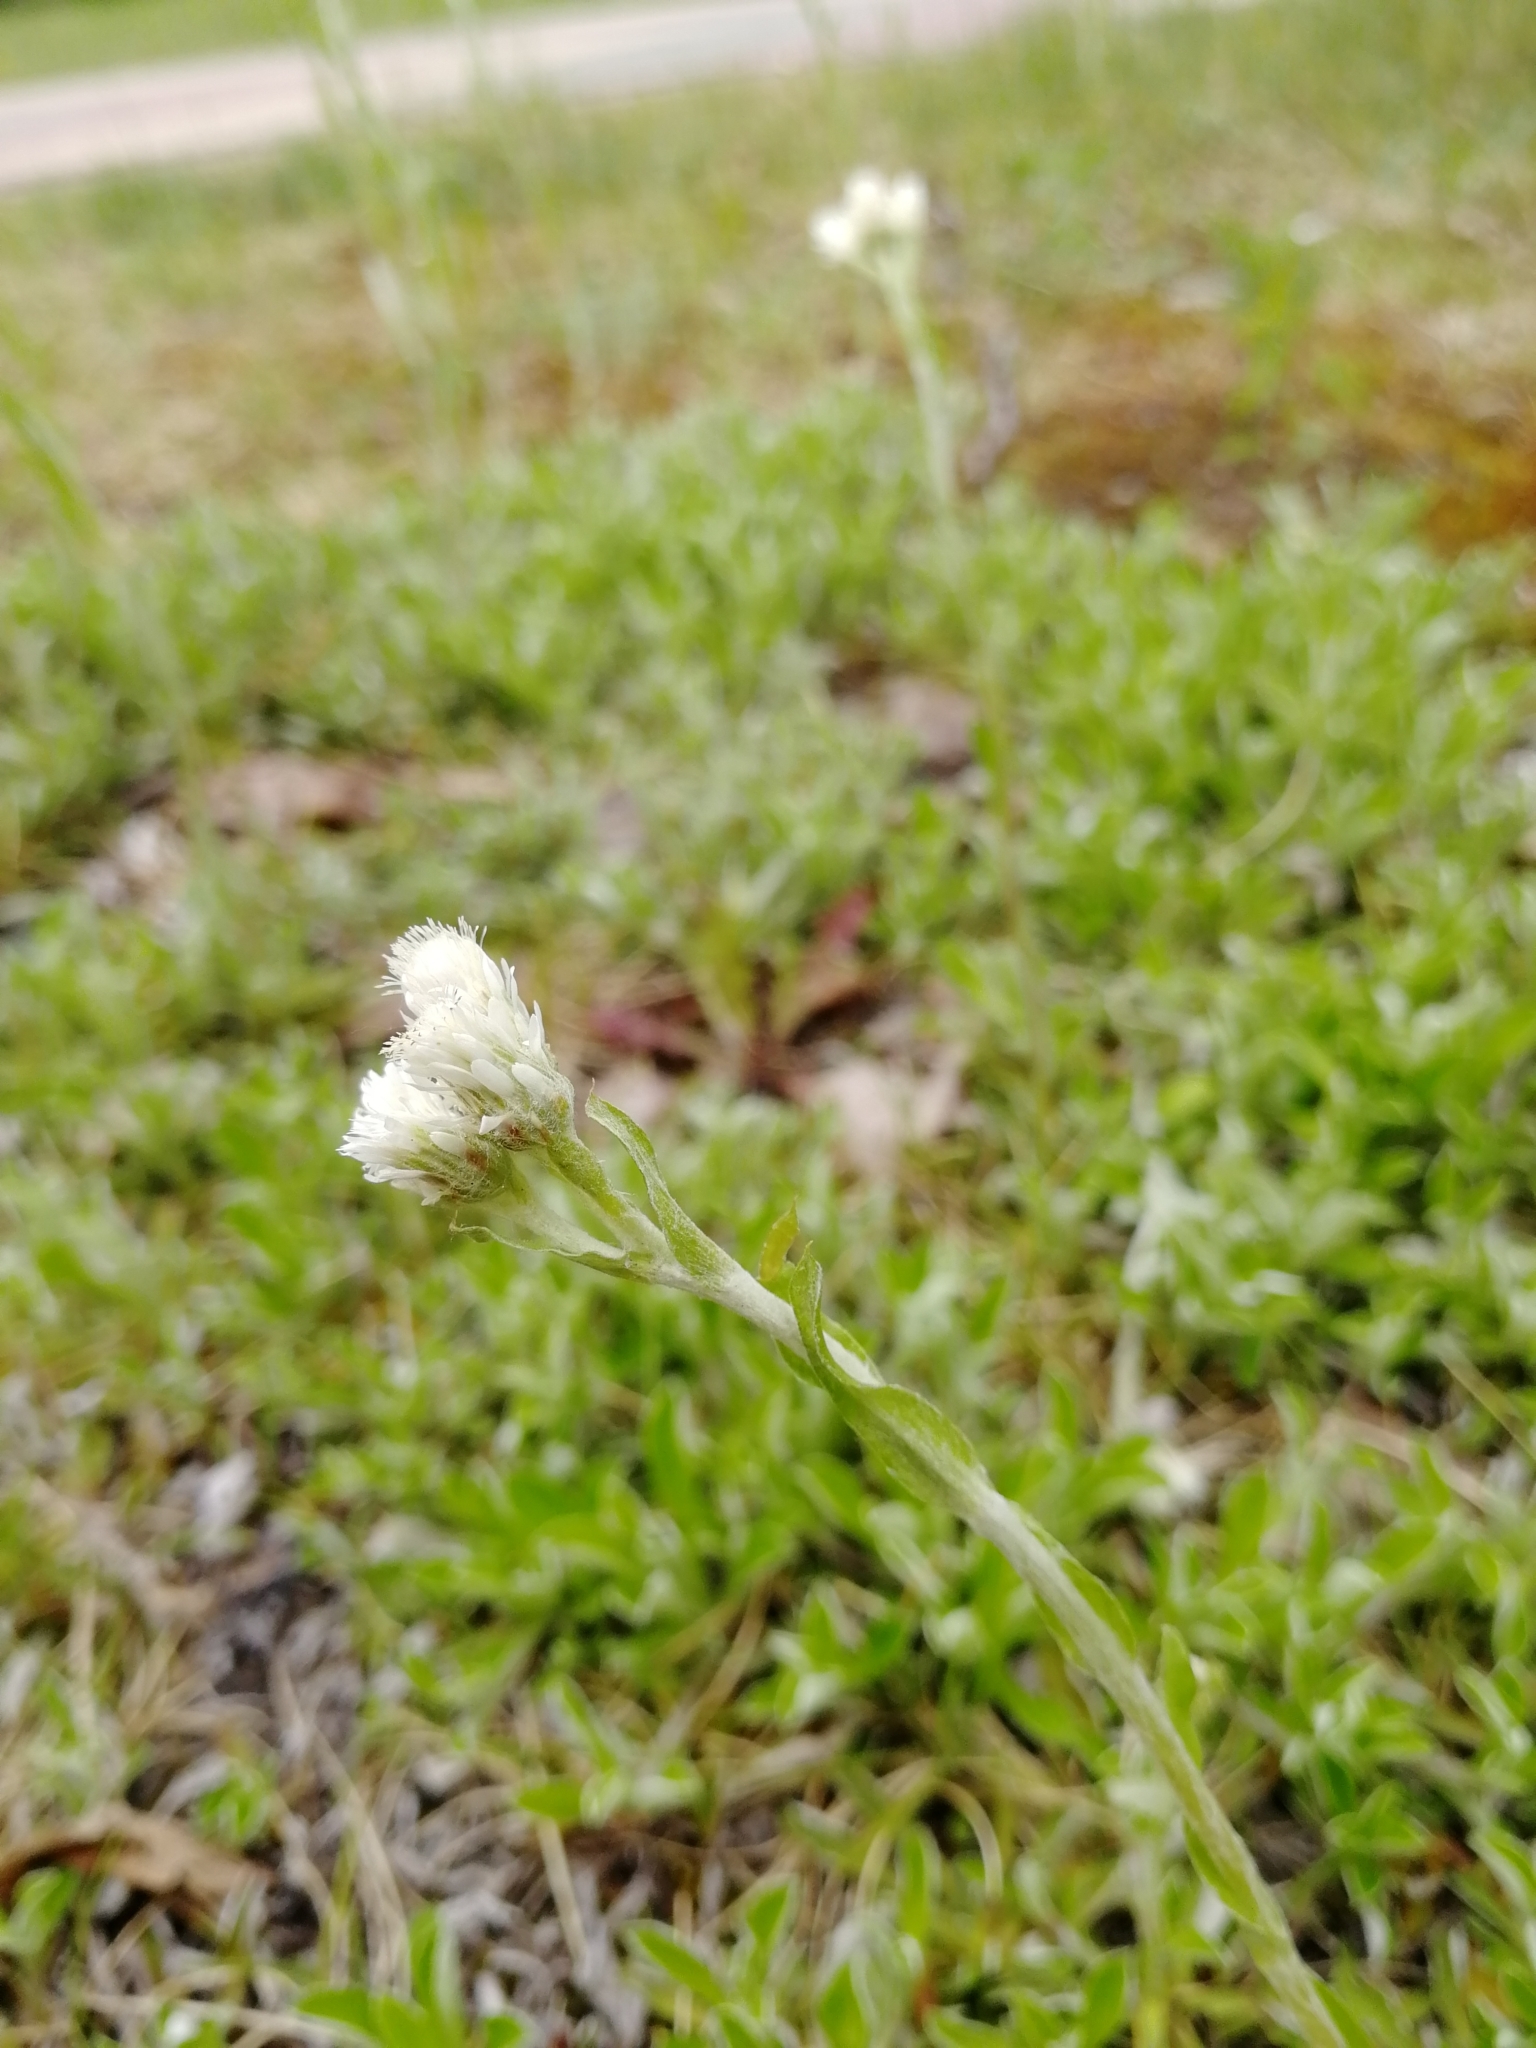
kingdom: Plantae
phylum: Tracheophyta
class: Magnoliopsida
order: Asterales
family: Asteraceae
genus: Antennaria
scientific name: Antennaria dioica
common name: Mountain everlasting
